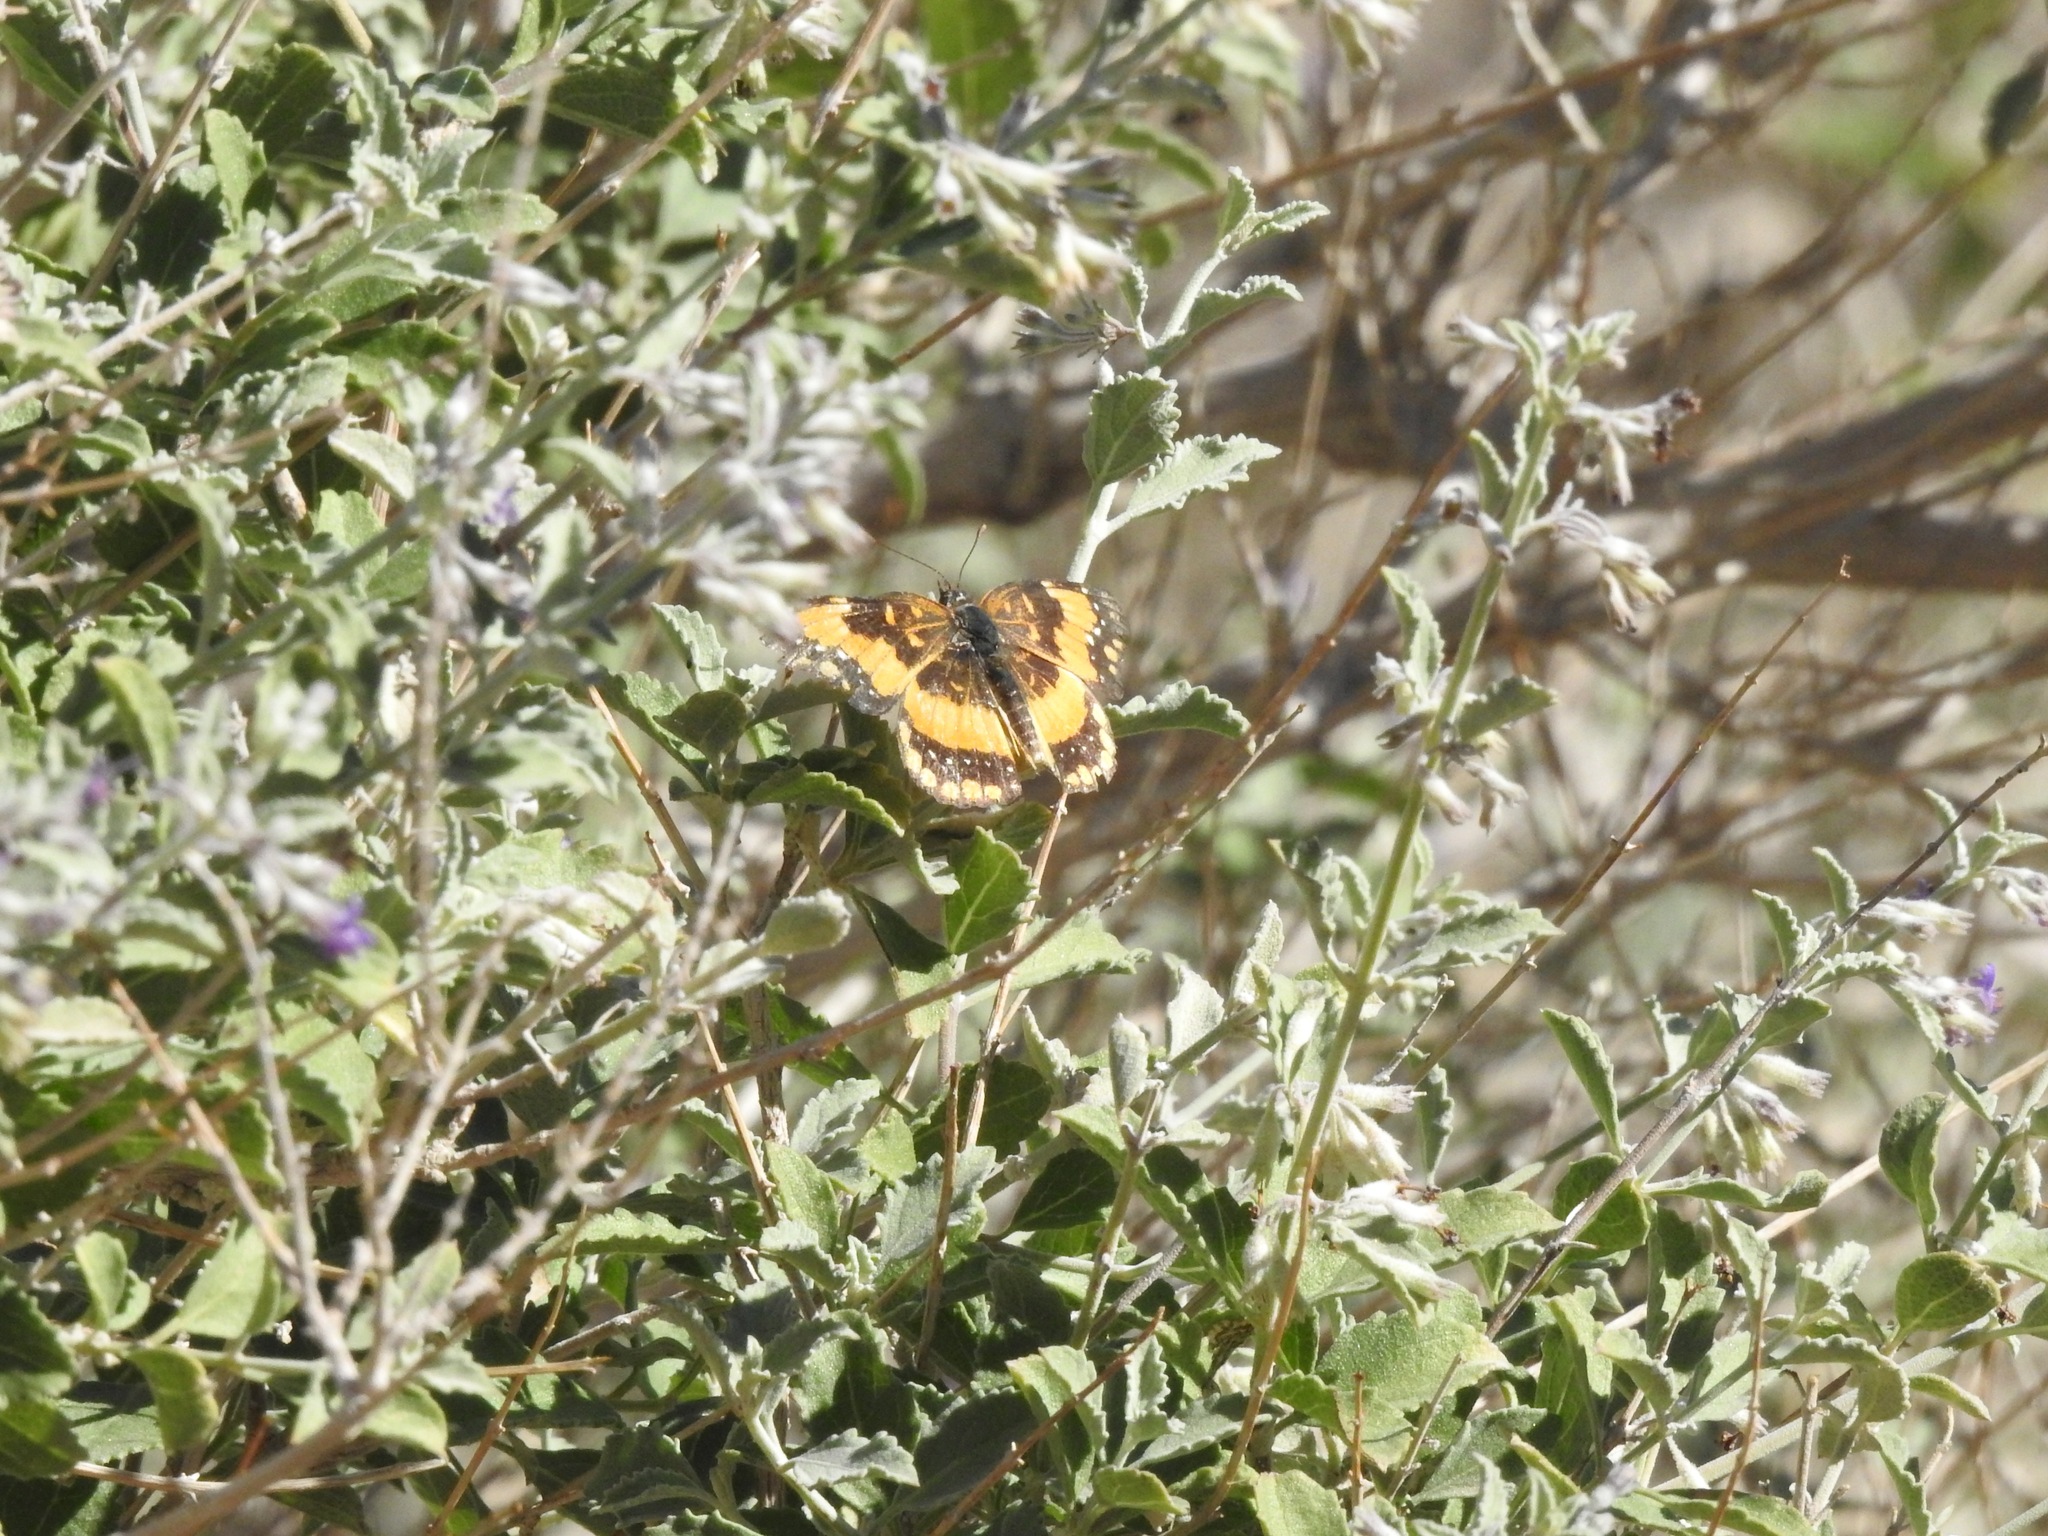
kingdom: Animalia
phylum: Arthropoda
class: Insecta
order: Lepidoptera
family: Nymphalidae
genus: Chlosyne
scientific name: Chlosyne californica
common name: California patch
